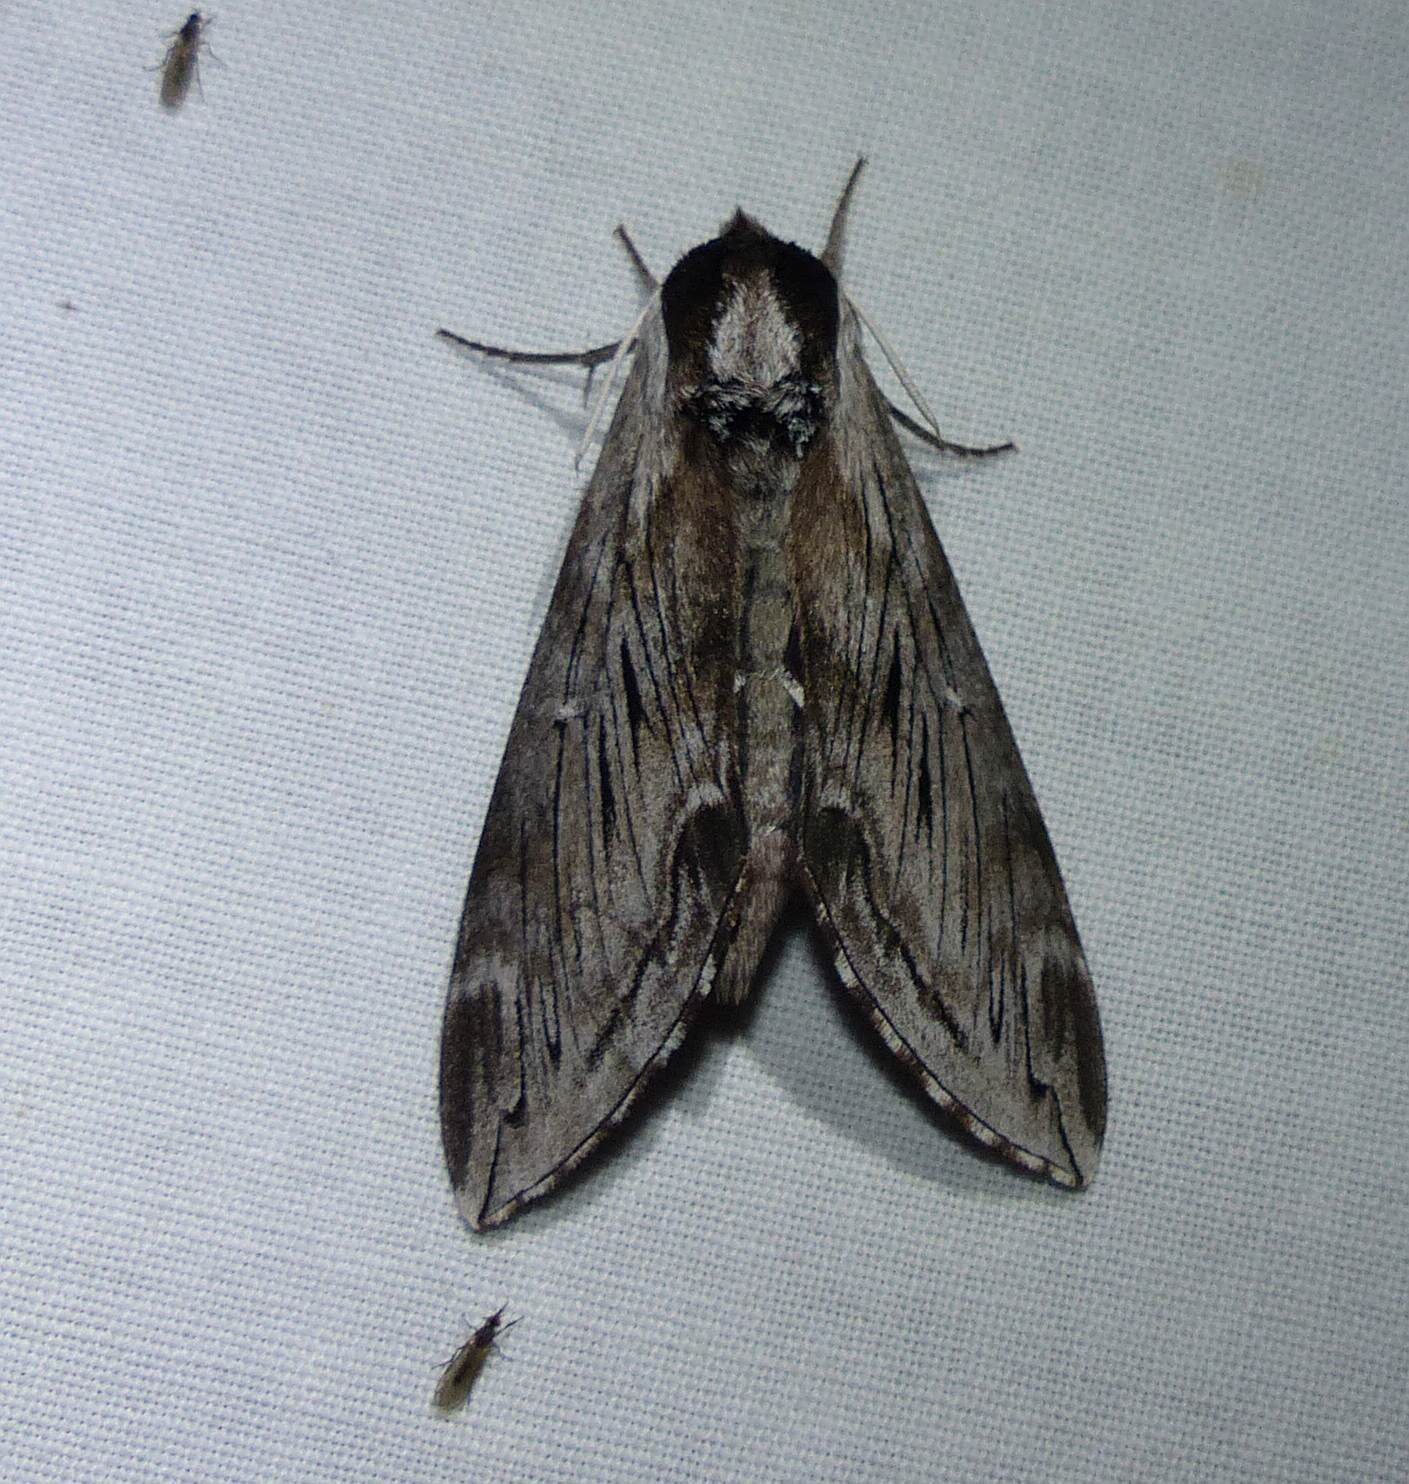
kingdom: Animalia
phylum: Arthropoda
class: Insecta
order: Lepidoptera
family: Sphingidae
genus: Sphinx
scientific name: Sphinx poecila
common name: Northern apple sphinx
